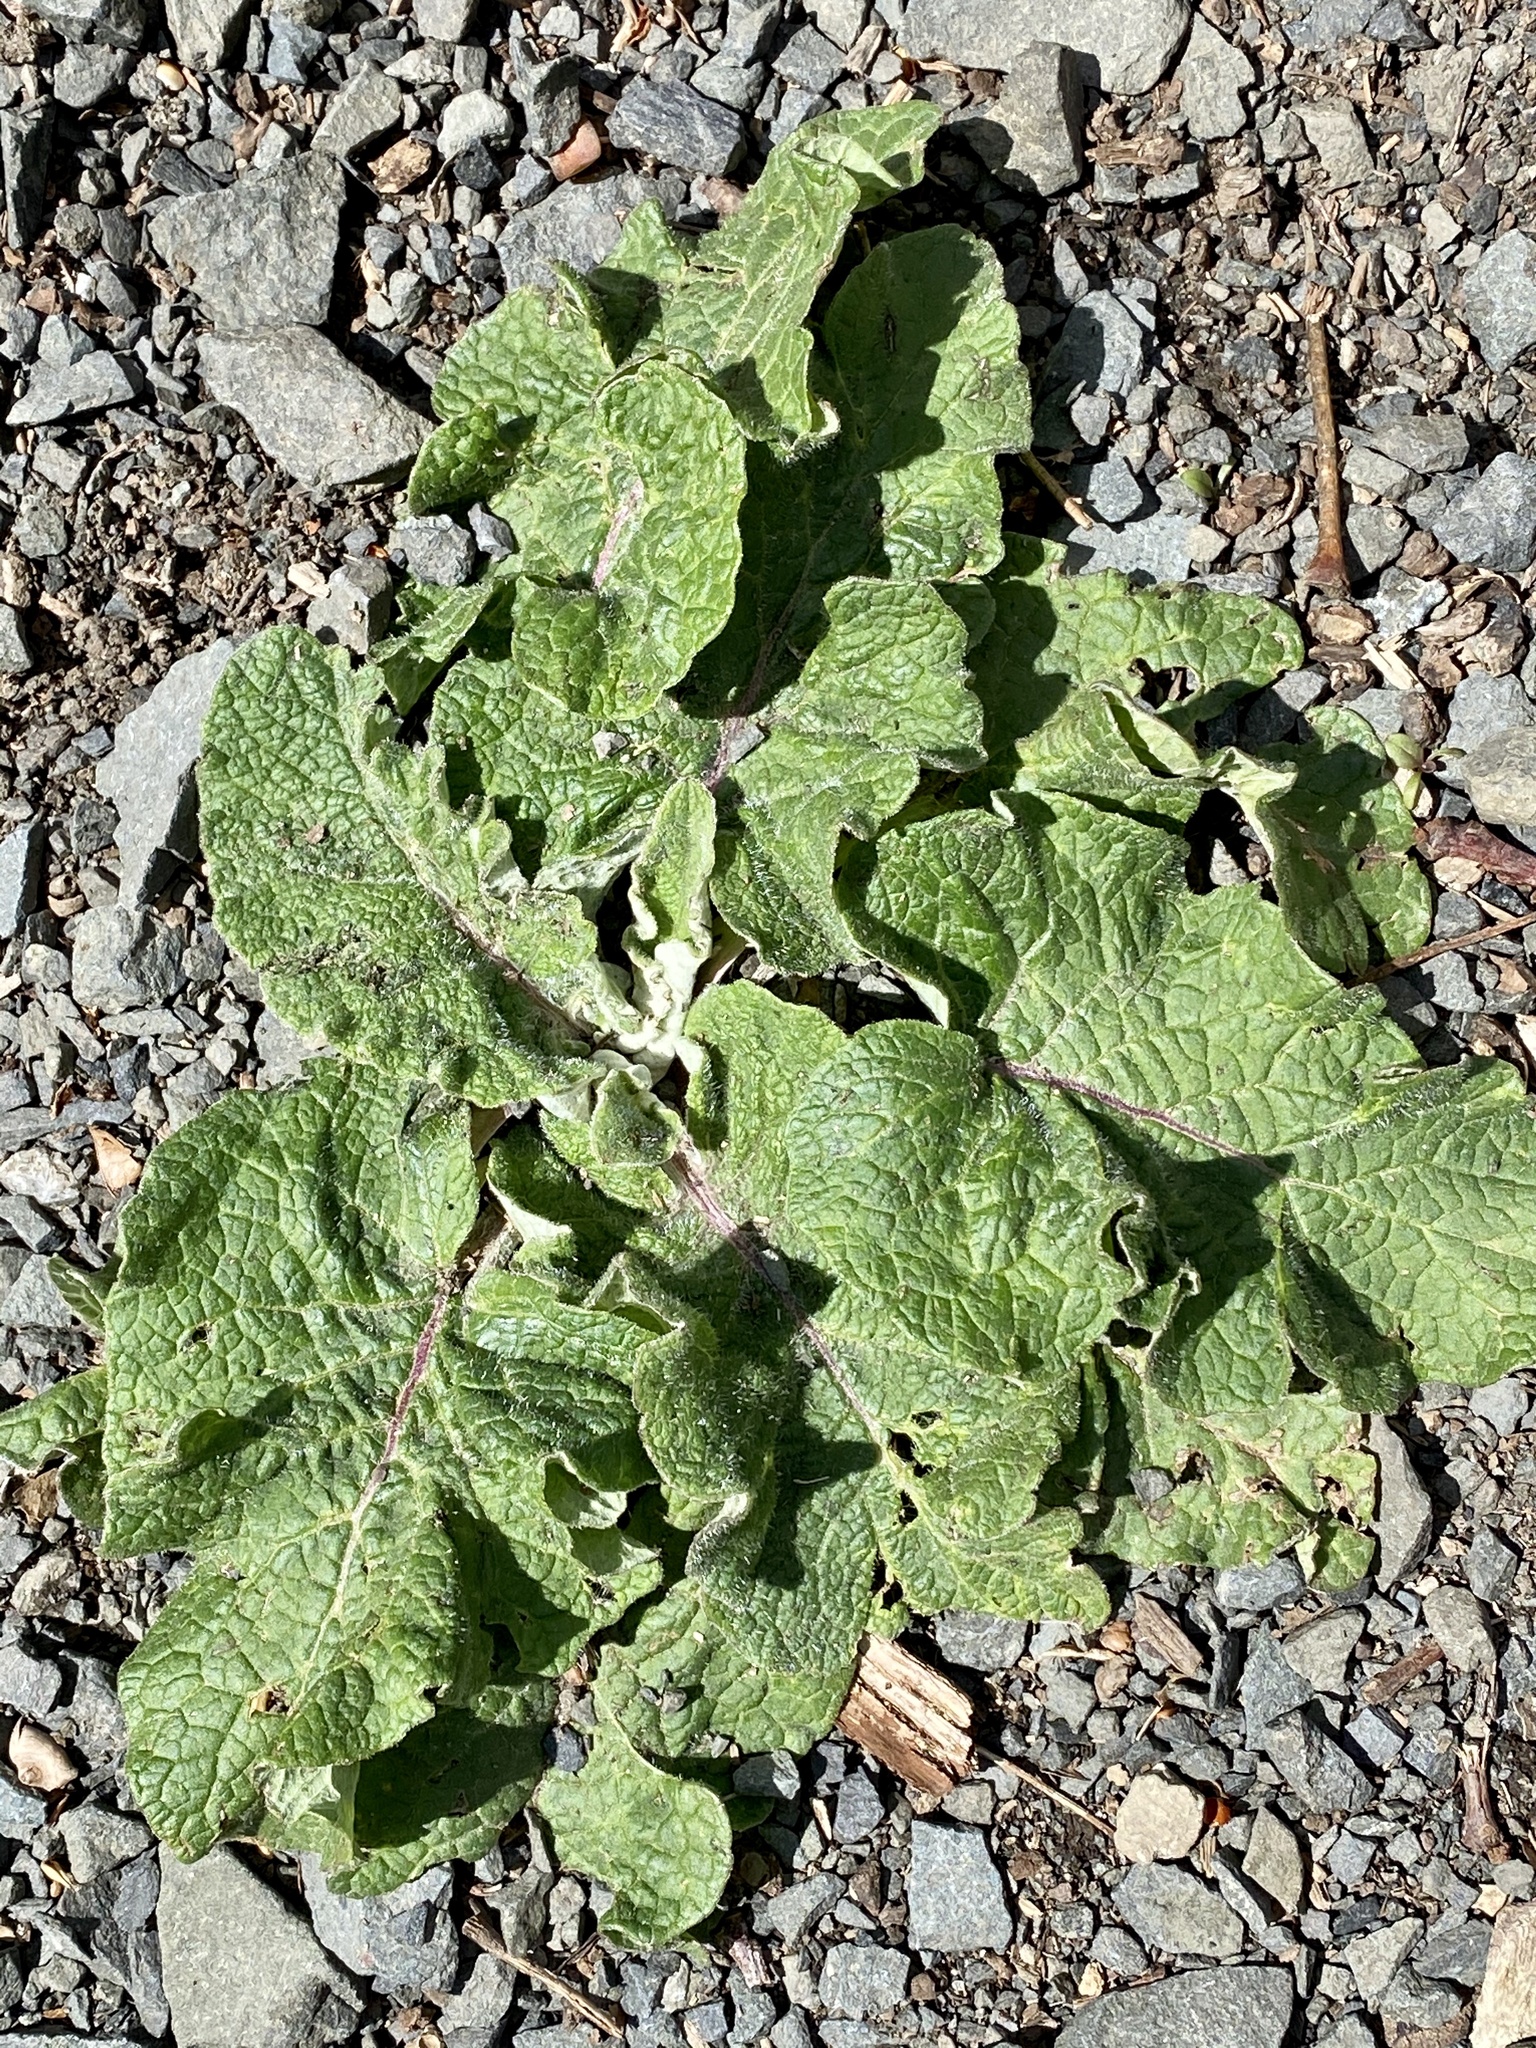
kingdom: Plantae
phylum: Tracheophyta
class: Magnoliopsida
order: Asterales
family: Asteraceae
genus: Arctium
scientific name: Arctium
